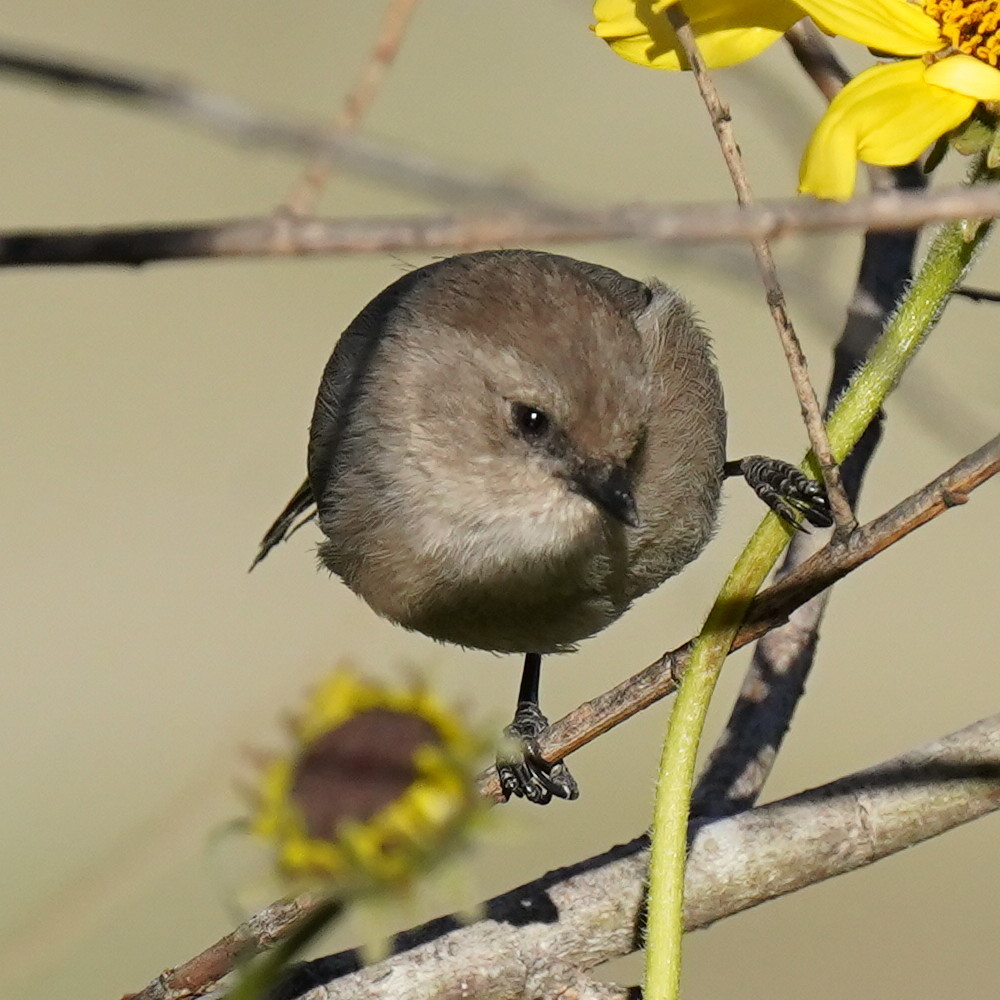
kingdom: Animalia
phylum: Chordata
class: Aves
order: Passeriformes
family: Aegithalidae
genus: Psaltriparus
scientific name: Psaltriparus minimus
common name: American bushtit
